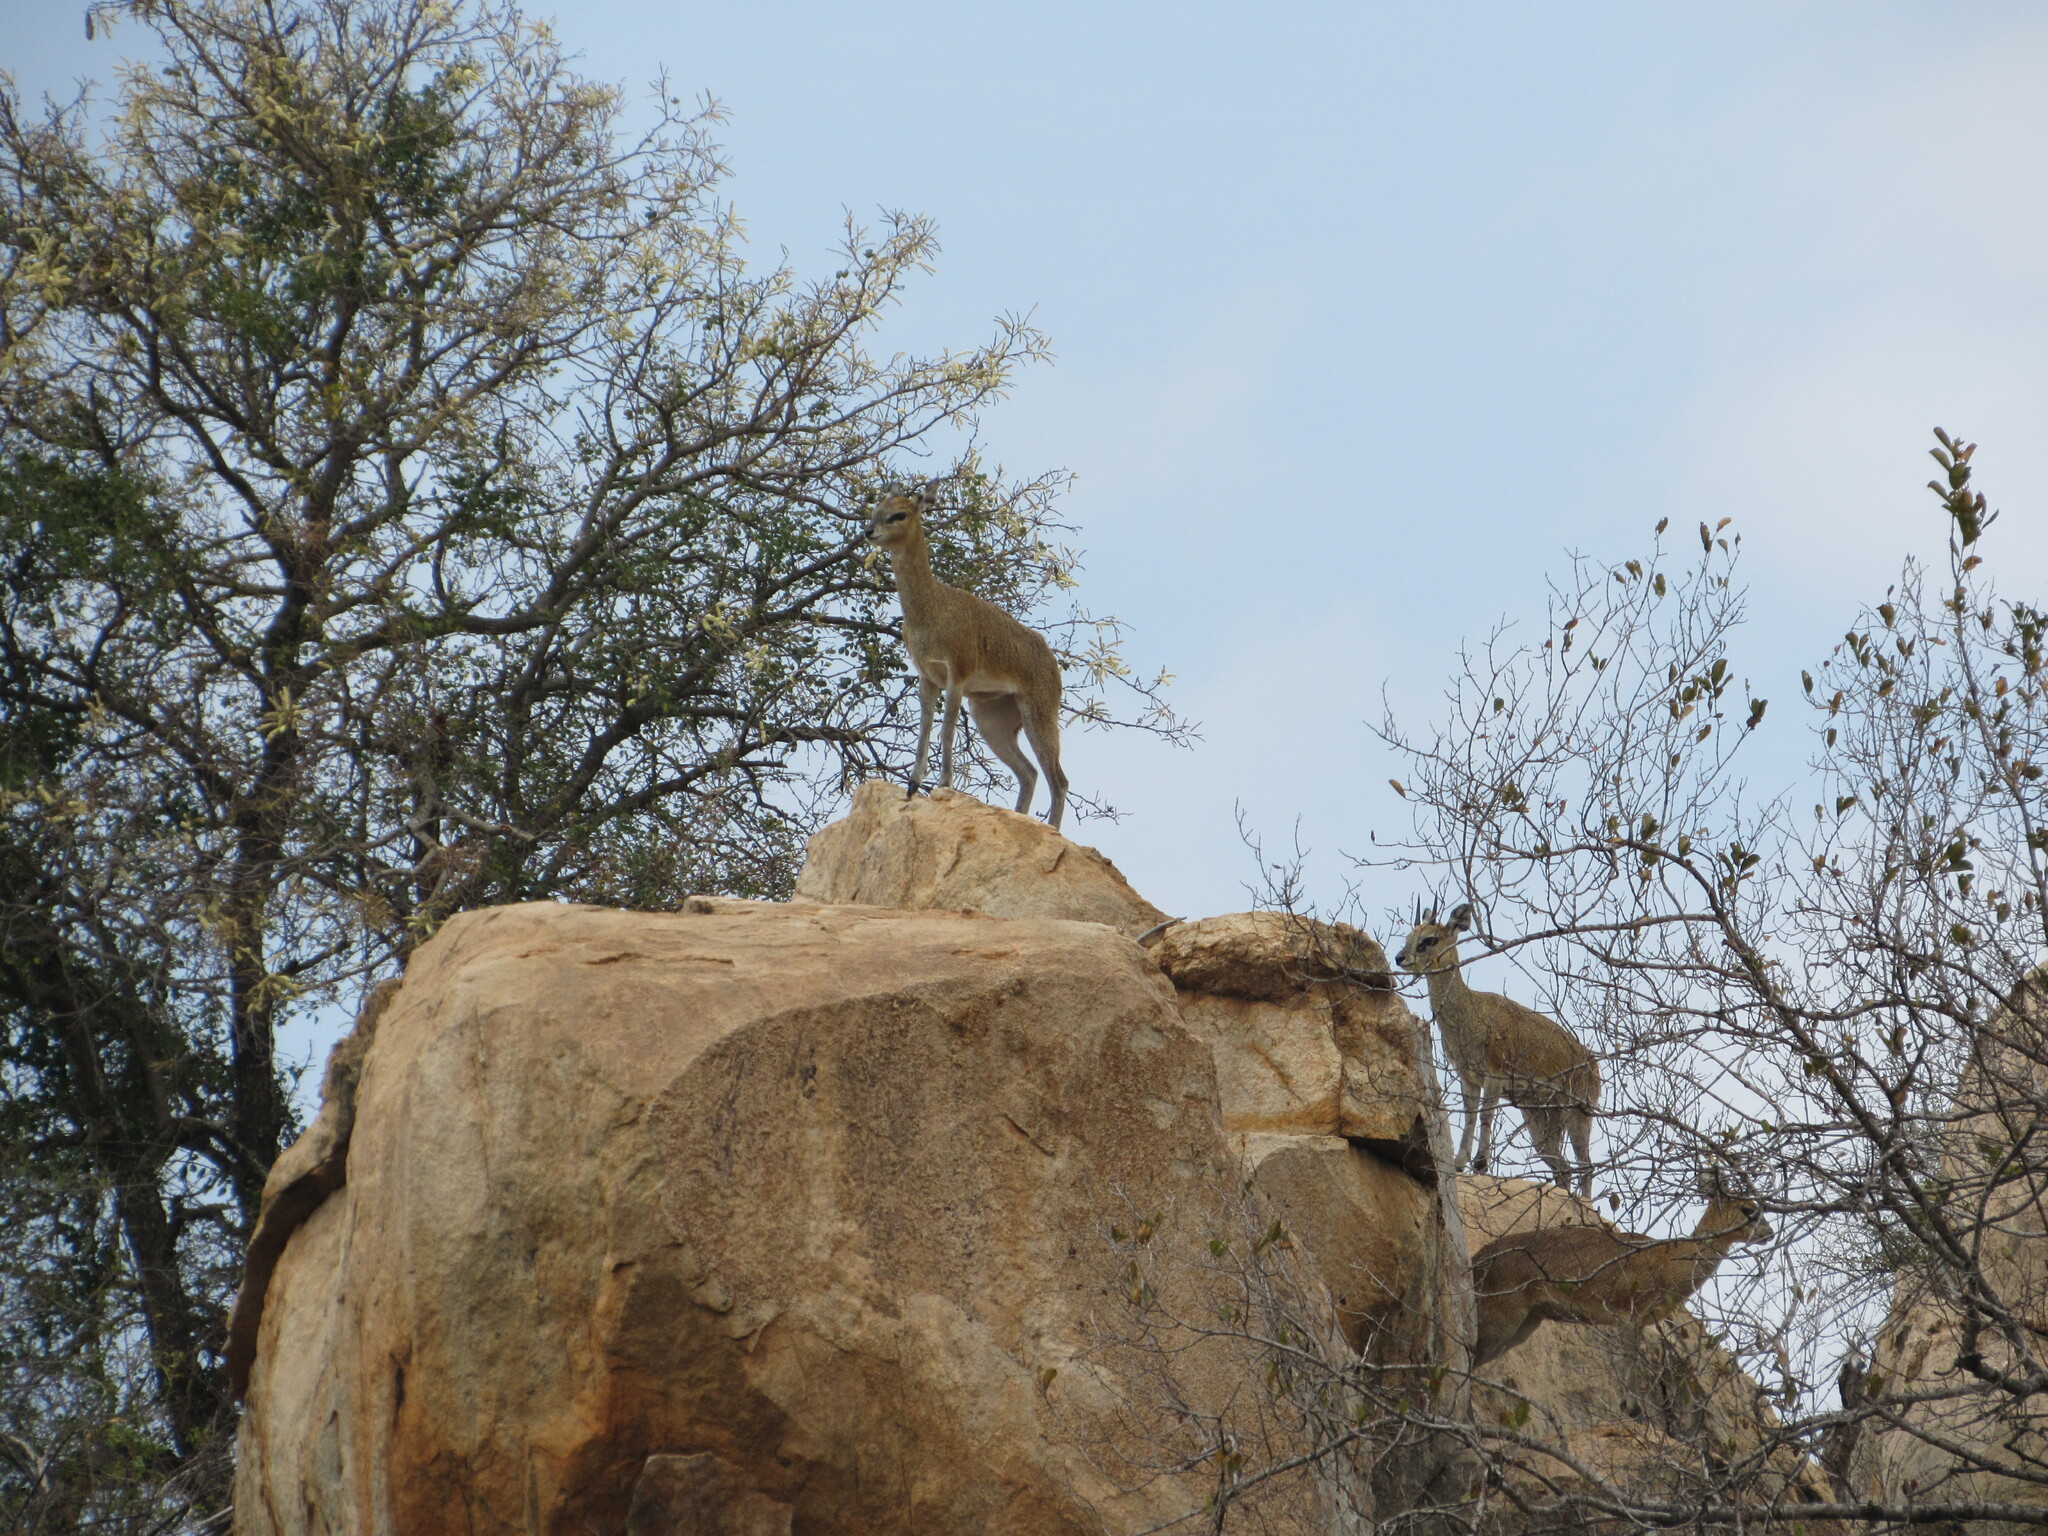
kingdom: Animalia
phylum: Chordata
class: Mammalia
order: Artiodactyla
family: Bovidae
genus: Oreotragus
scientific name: Oreotragus oreotragus
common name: Klipspringer
